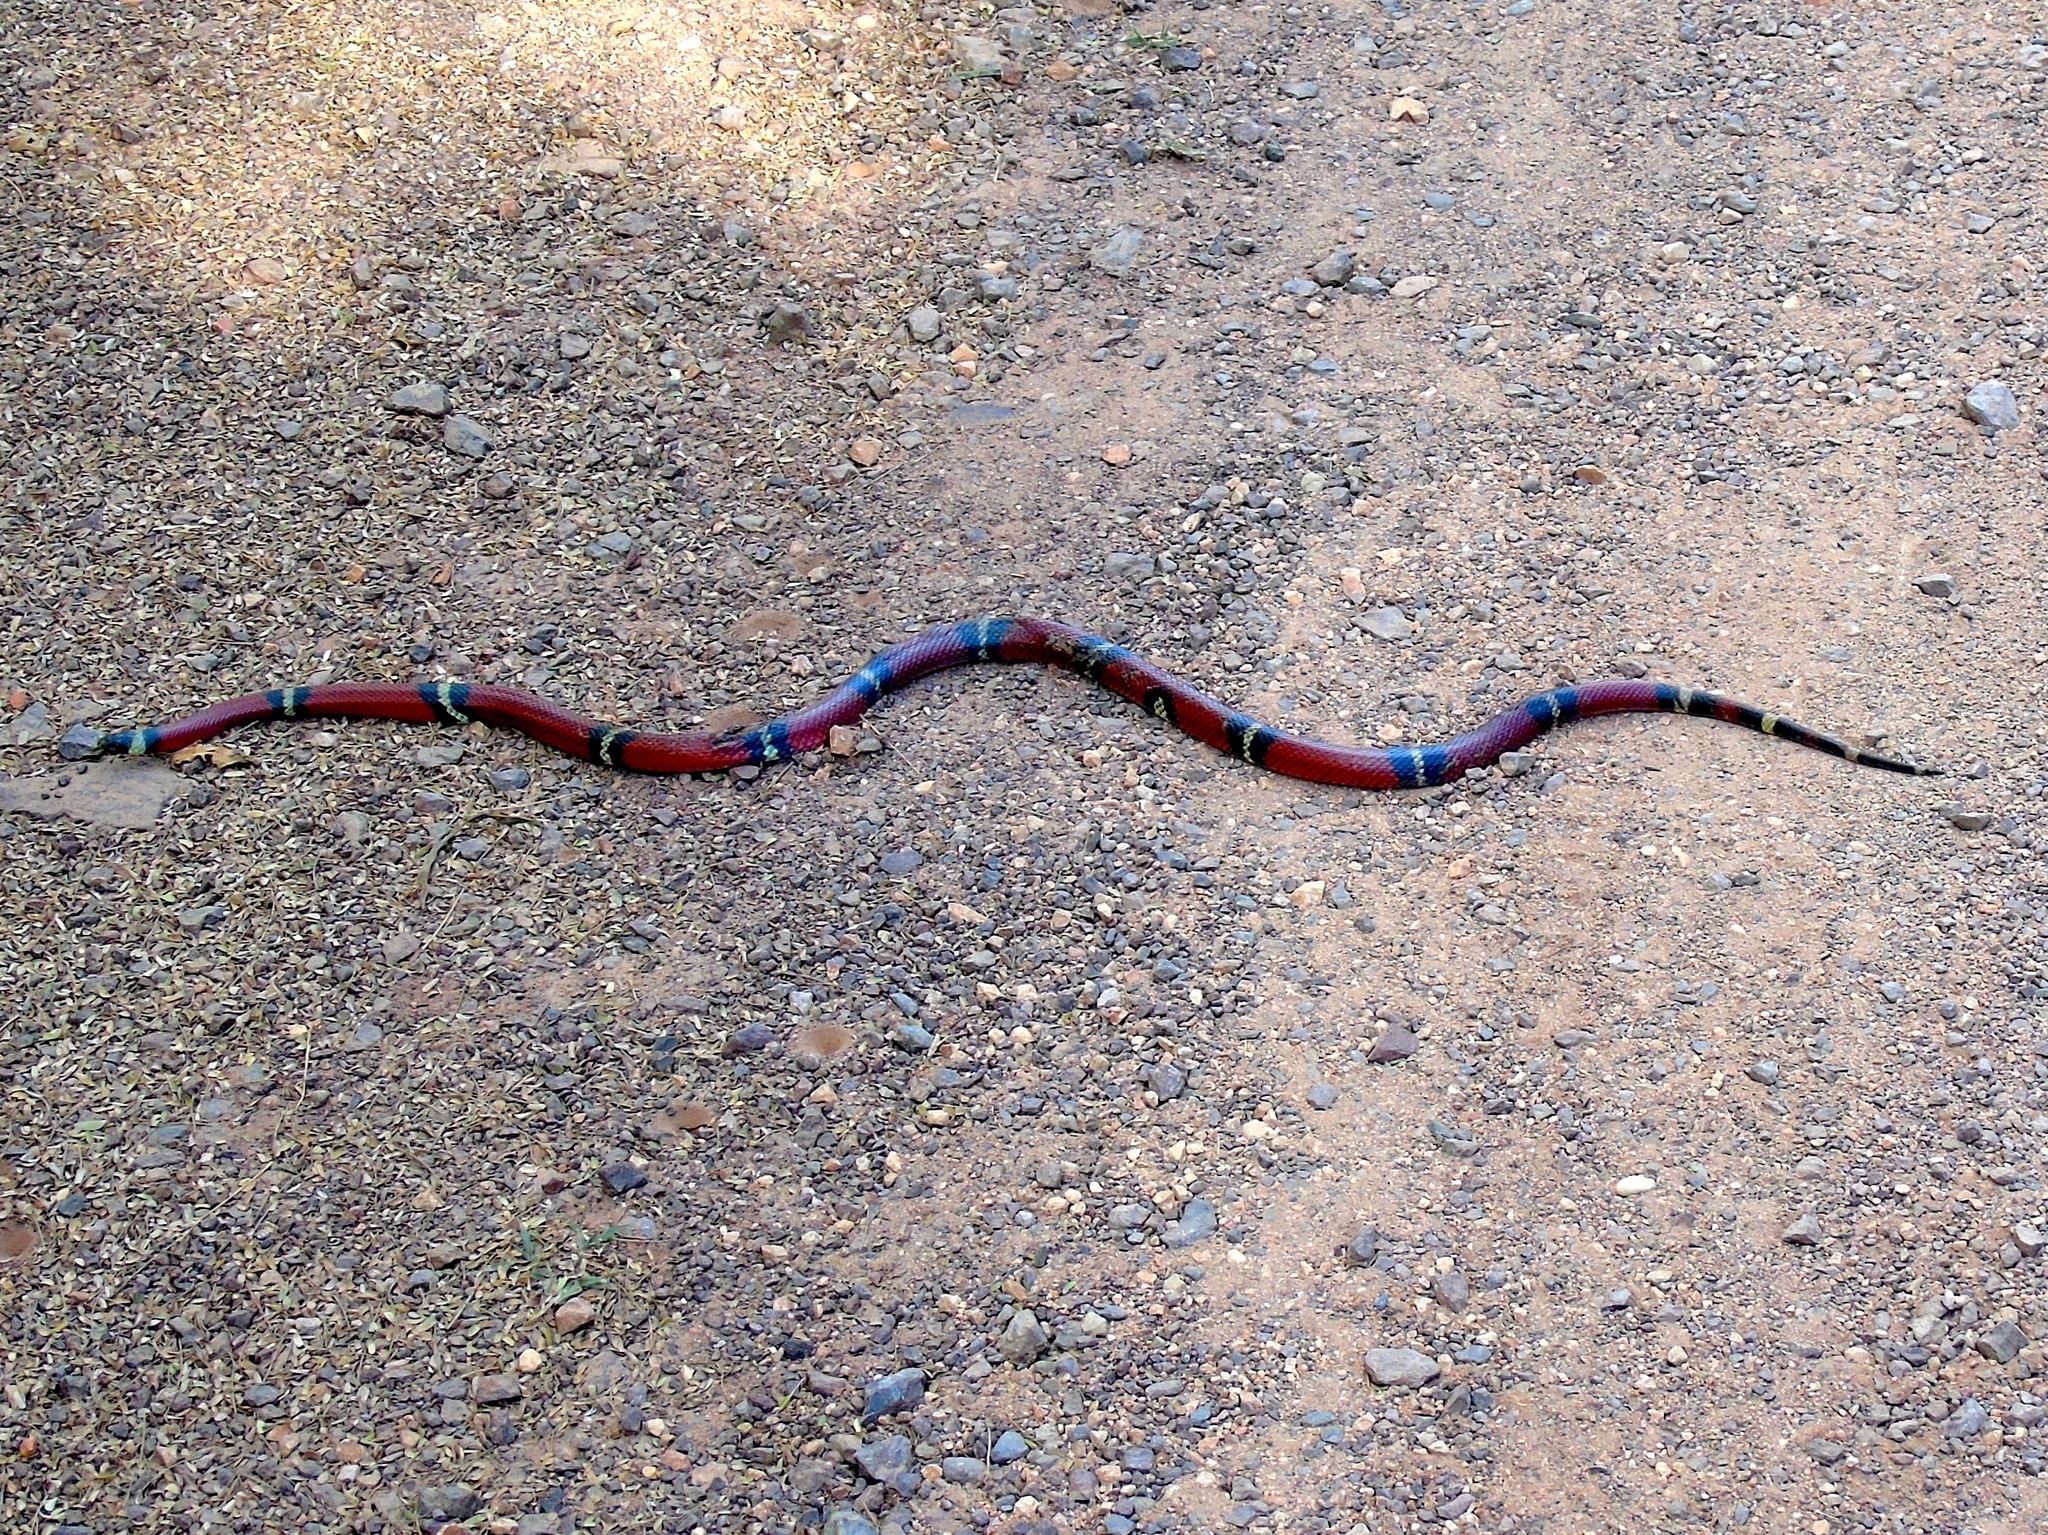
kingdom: Animalia
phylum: Chordata
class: Squamata
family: Colubridae
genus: Lampropeltis
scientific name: Lampropeltis polyzona
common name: Atlantic central american milksnake
